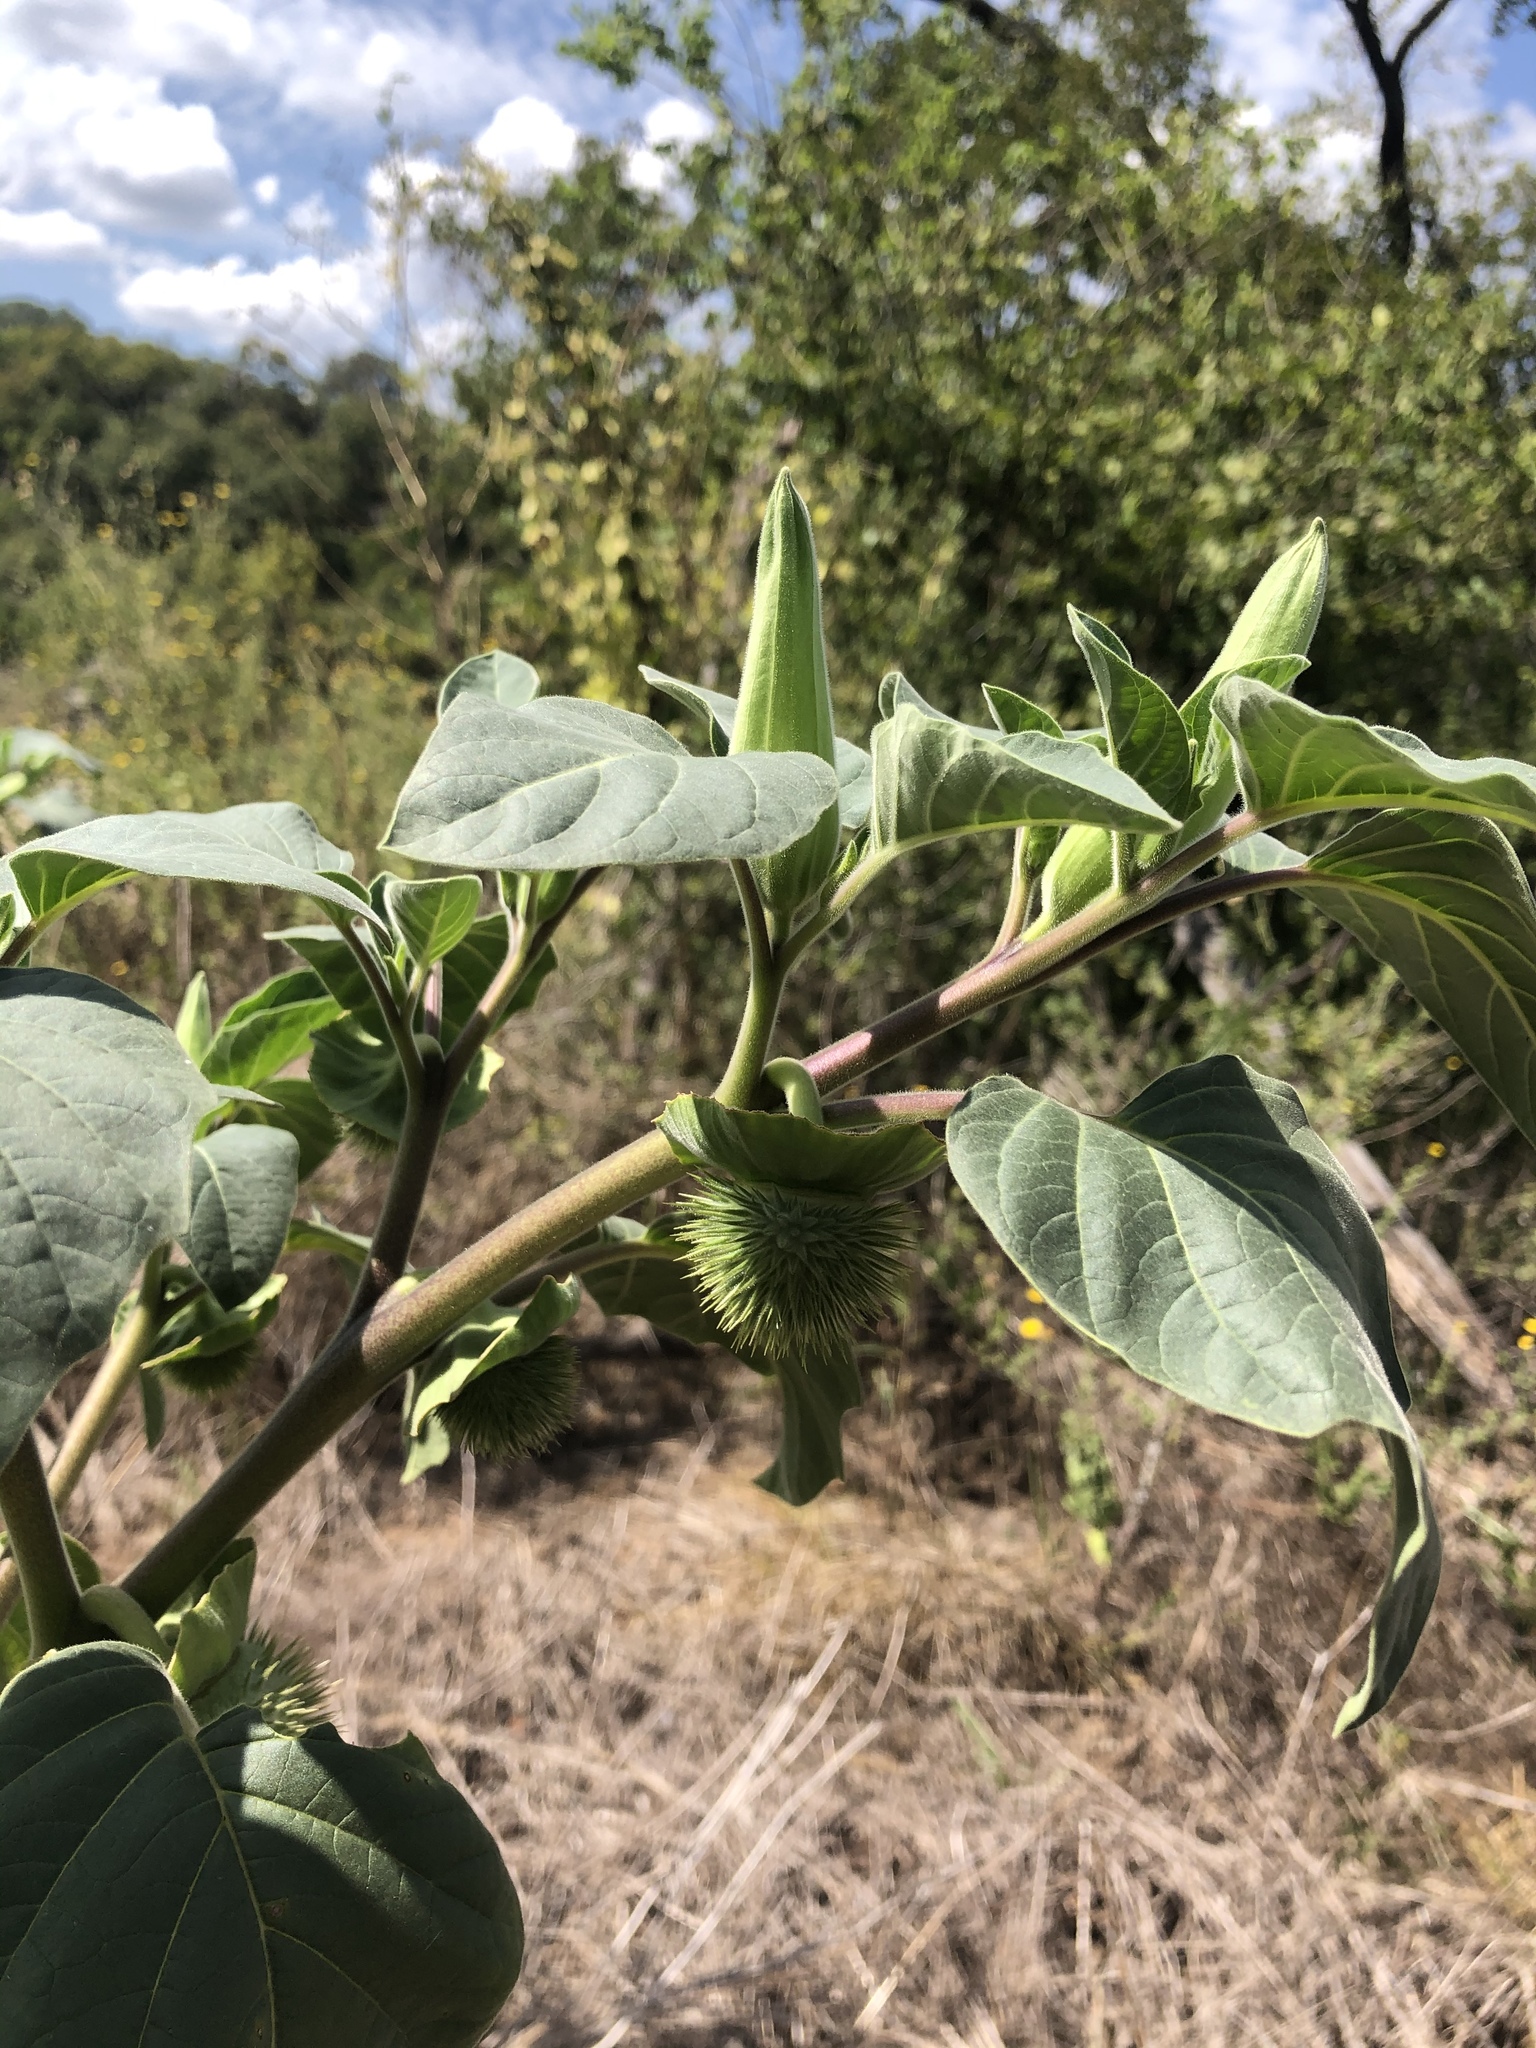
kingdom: Plantae
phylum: Tracheophyta
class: Magnoliopsida
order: Solanales
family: Solanaceae
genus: Datura
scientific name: Datura wrightii
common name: Sacred thorn-apple
